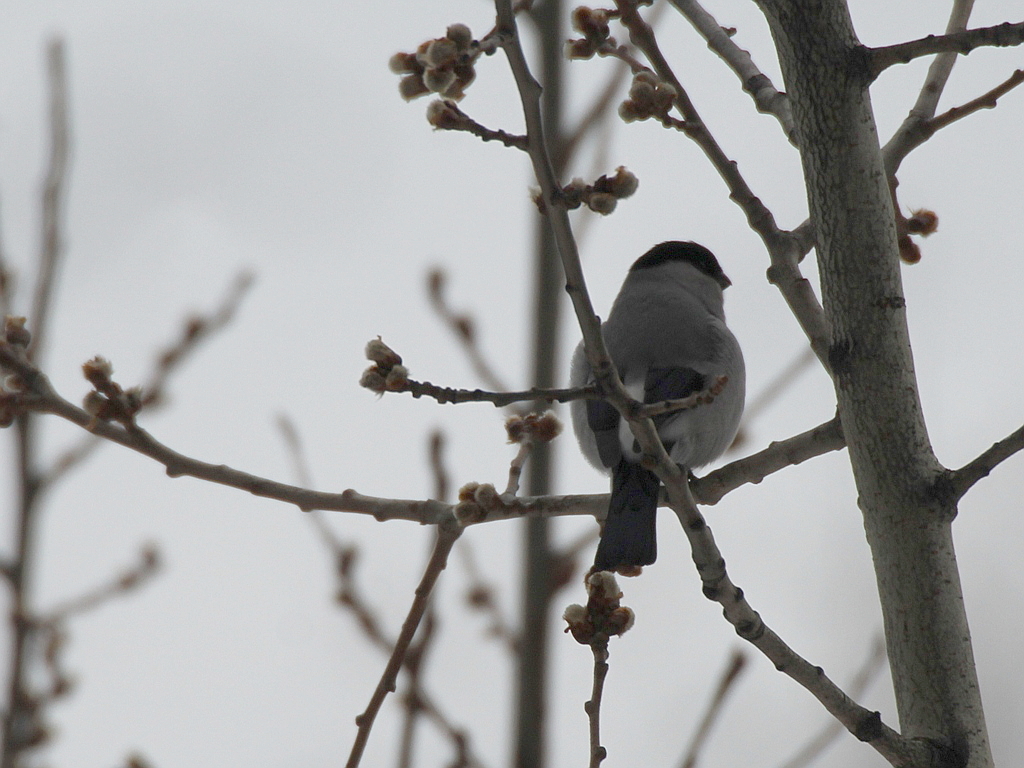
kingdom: Animalia
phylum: Chordata
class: Aves
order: Passeriformes
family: Fringillidae
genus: Pyrrhula
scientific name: Pyrrhula pyrrhula
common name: Eurasian bullfinch
